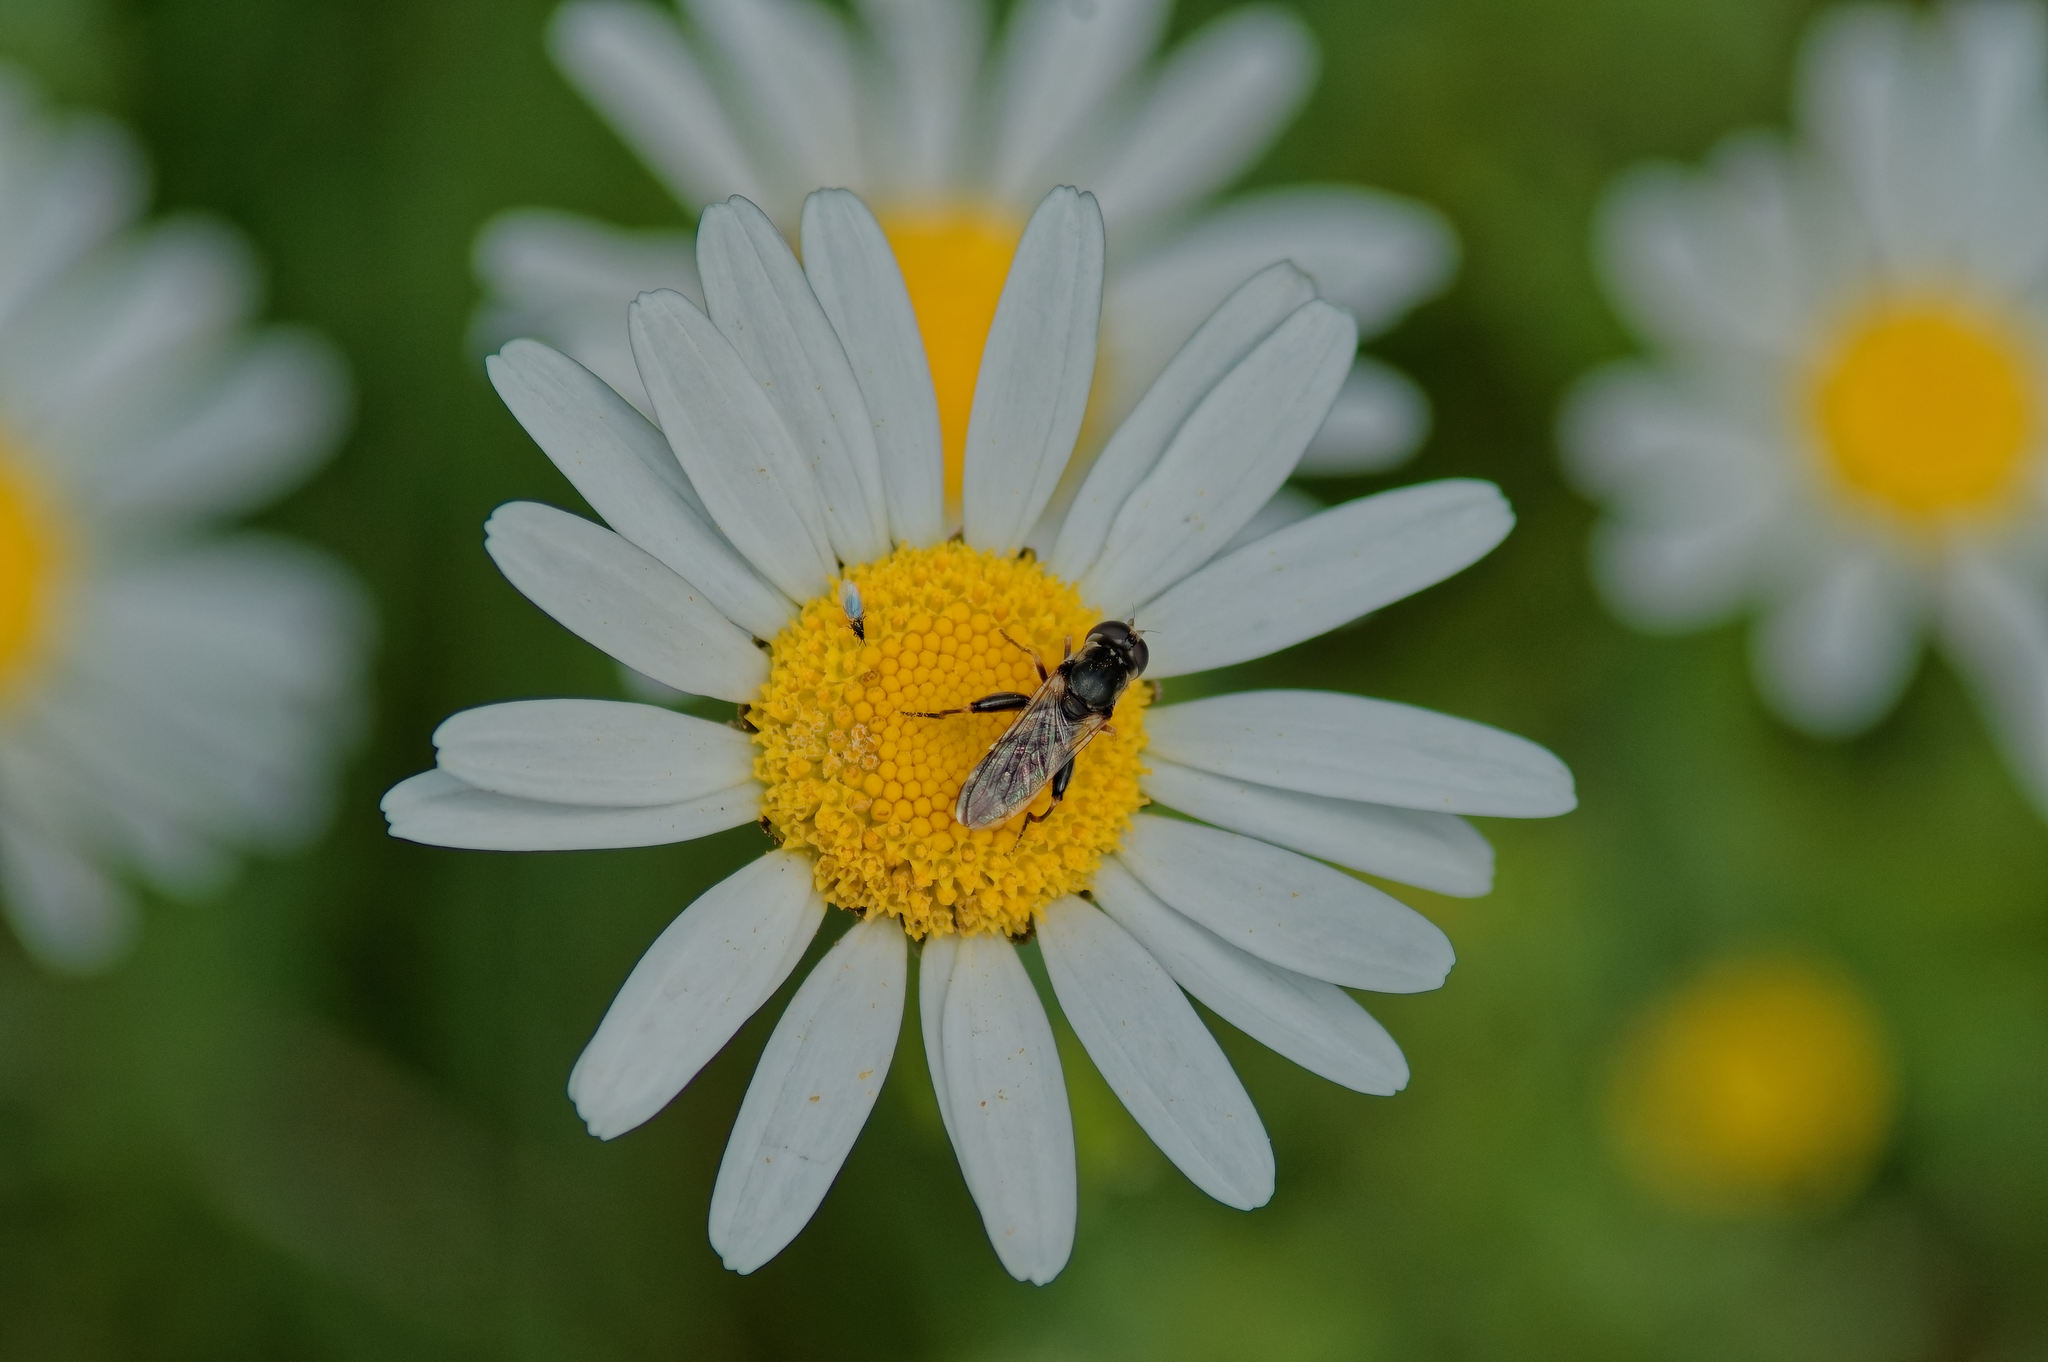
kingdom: Animalia
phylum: Arthropoda
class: Insecta
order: Diptera
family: Syrphidae
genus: Syritta
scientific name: Syritta pipiens
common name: Hover fly
